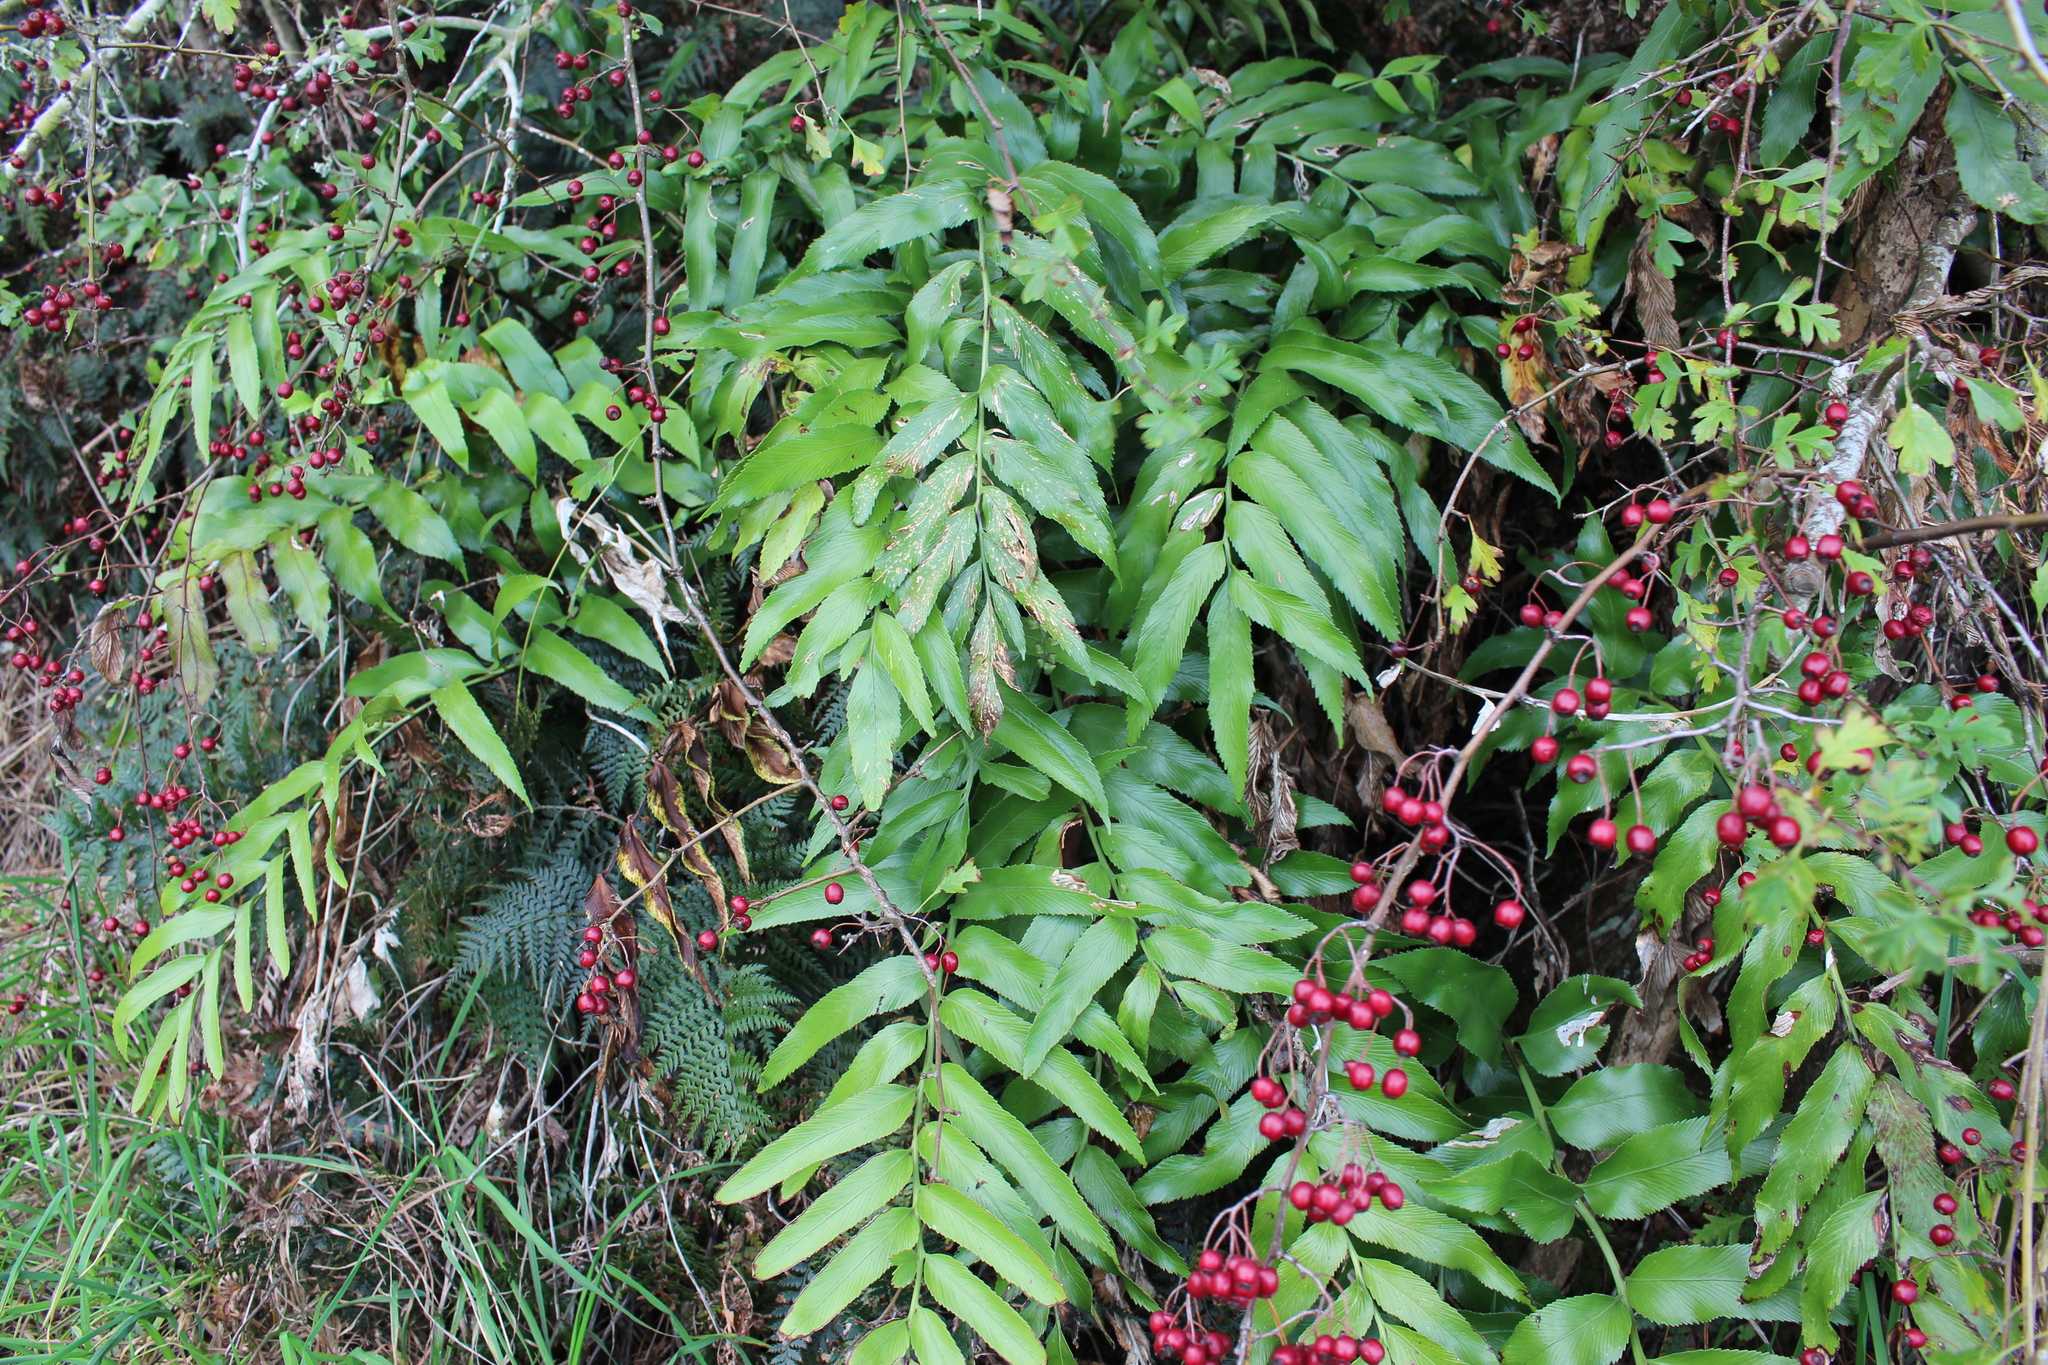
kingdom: Plantae
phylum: Tracheophyta
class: Polypodiopsida
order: Polypodiales
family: Aspleniaceae
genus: Asplenium
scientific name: Asplenium oblongifolium
